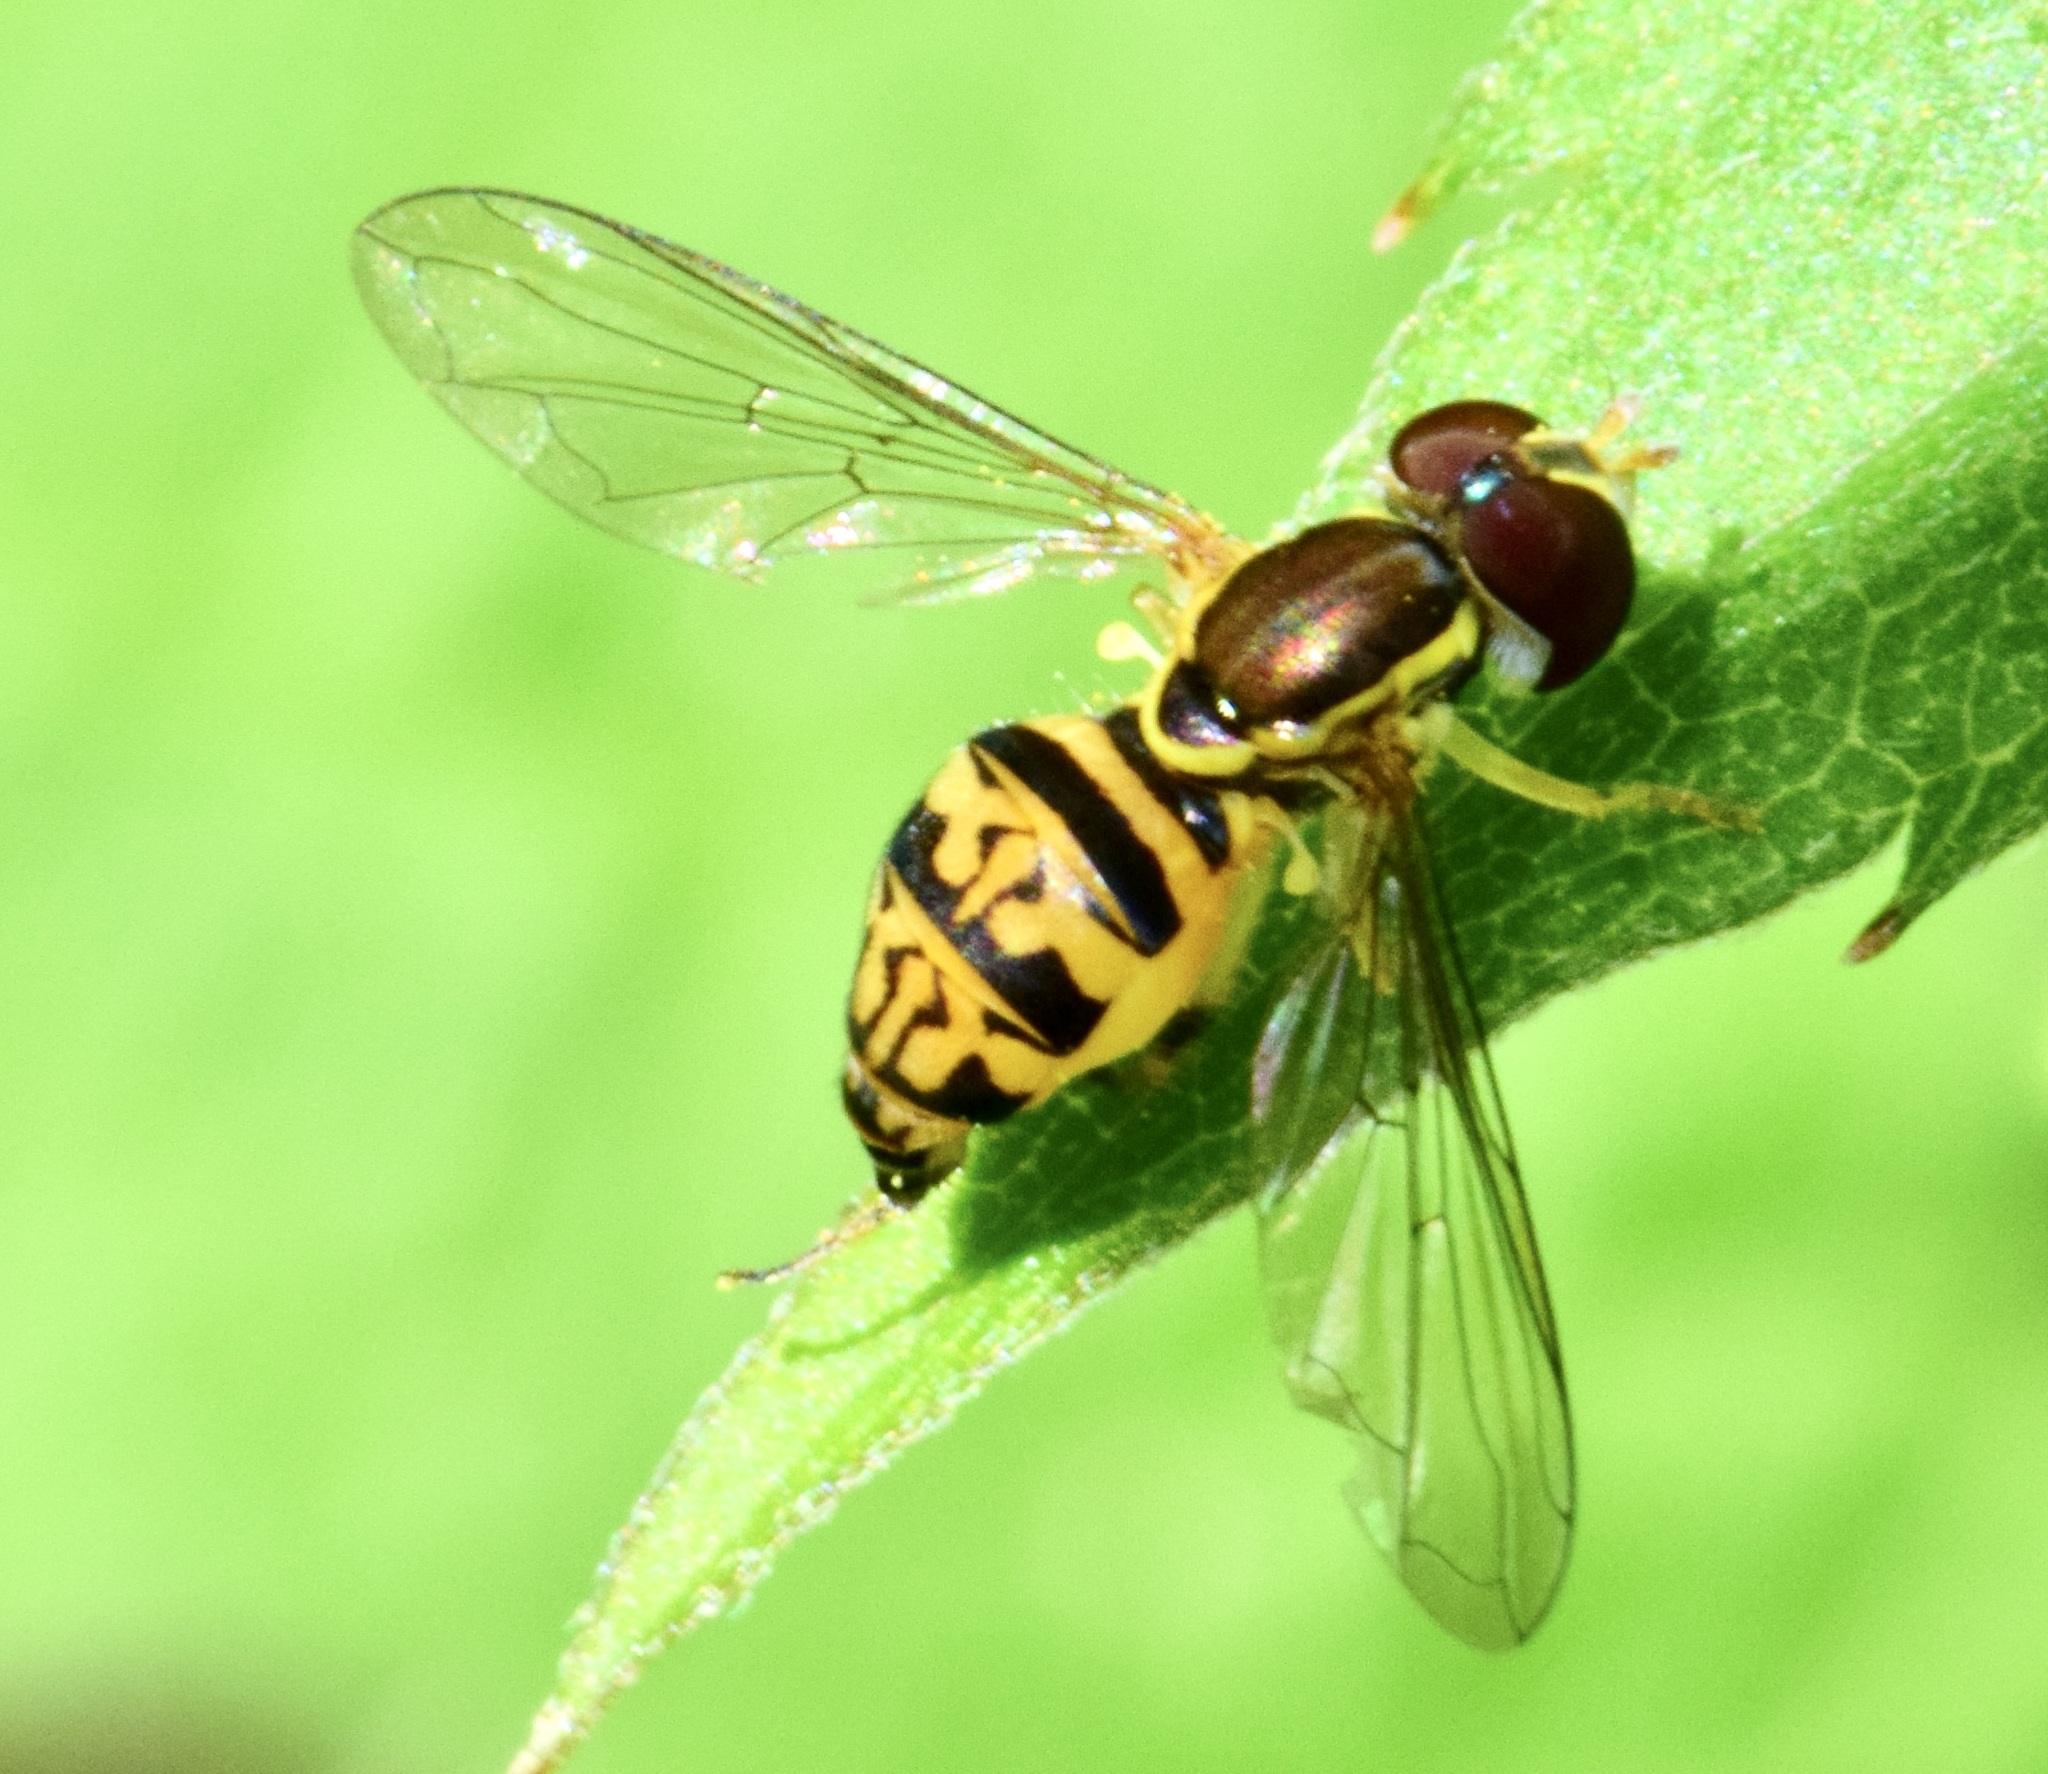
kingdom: Animalia
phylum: Arthropoda
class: Insecta
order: Diptera
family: Syrphidae
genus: Toxomerus
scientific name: Toxomerus geminatus
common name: Eastern calligrapher
